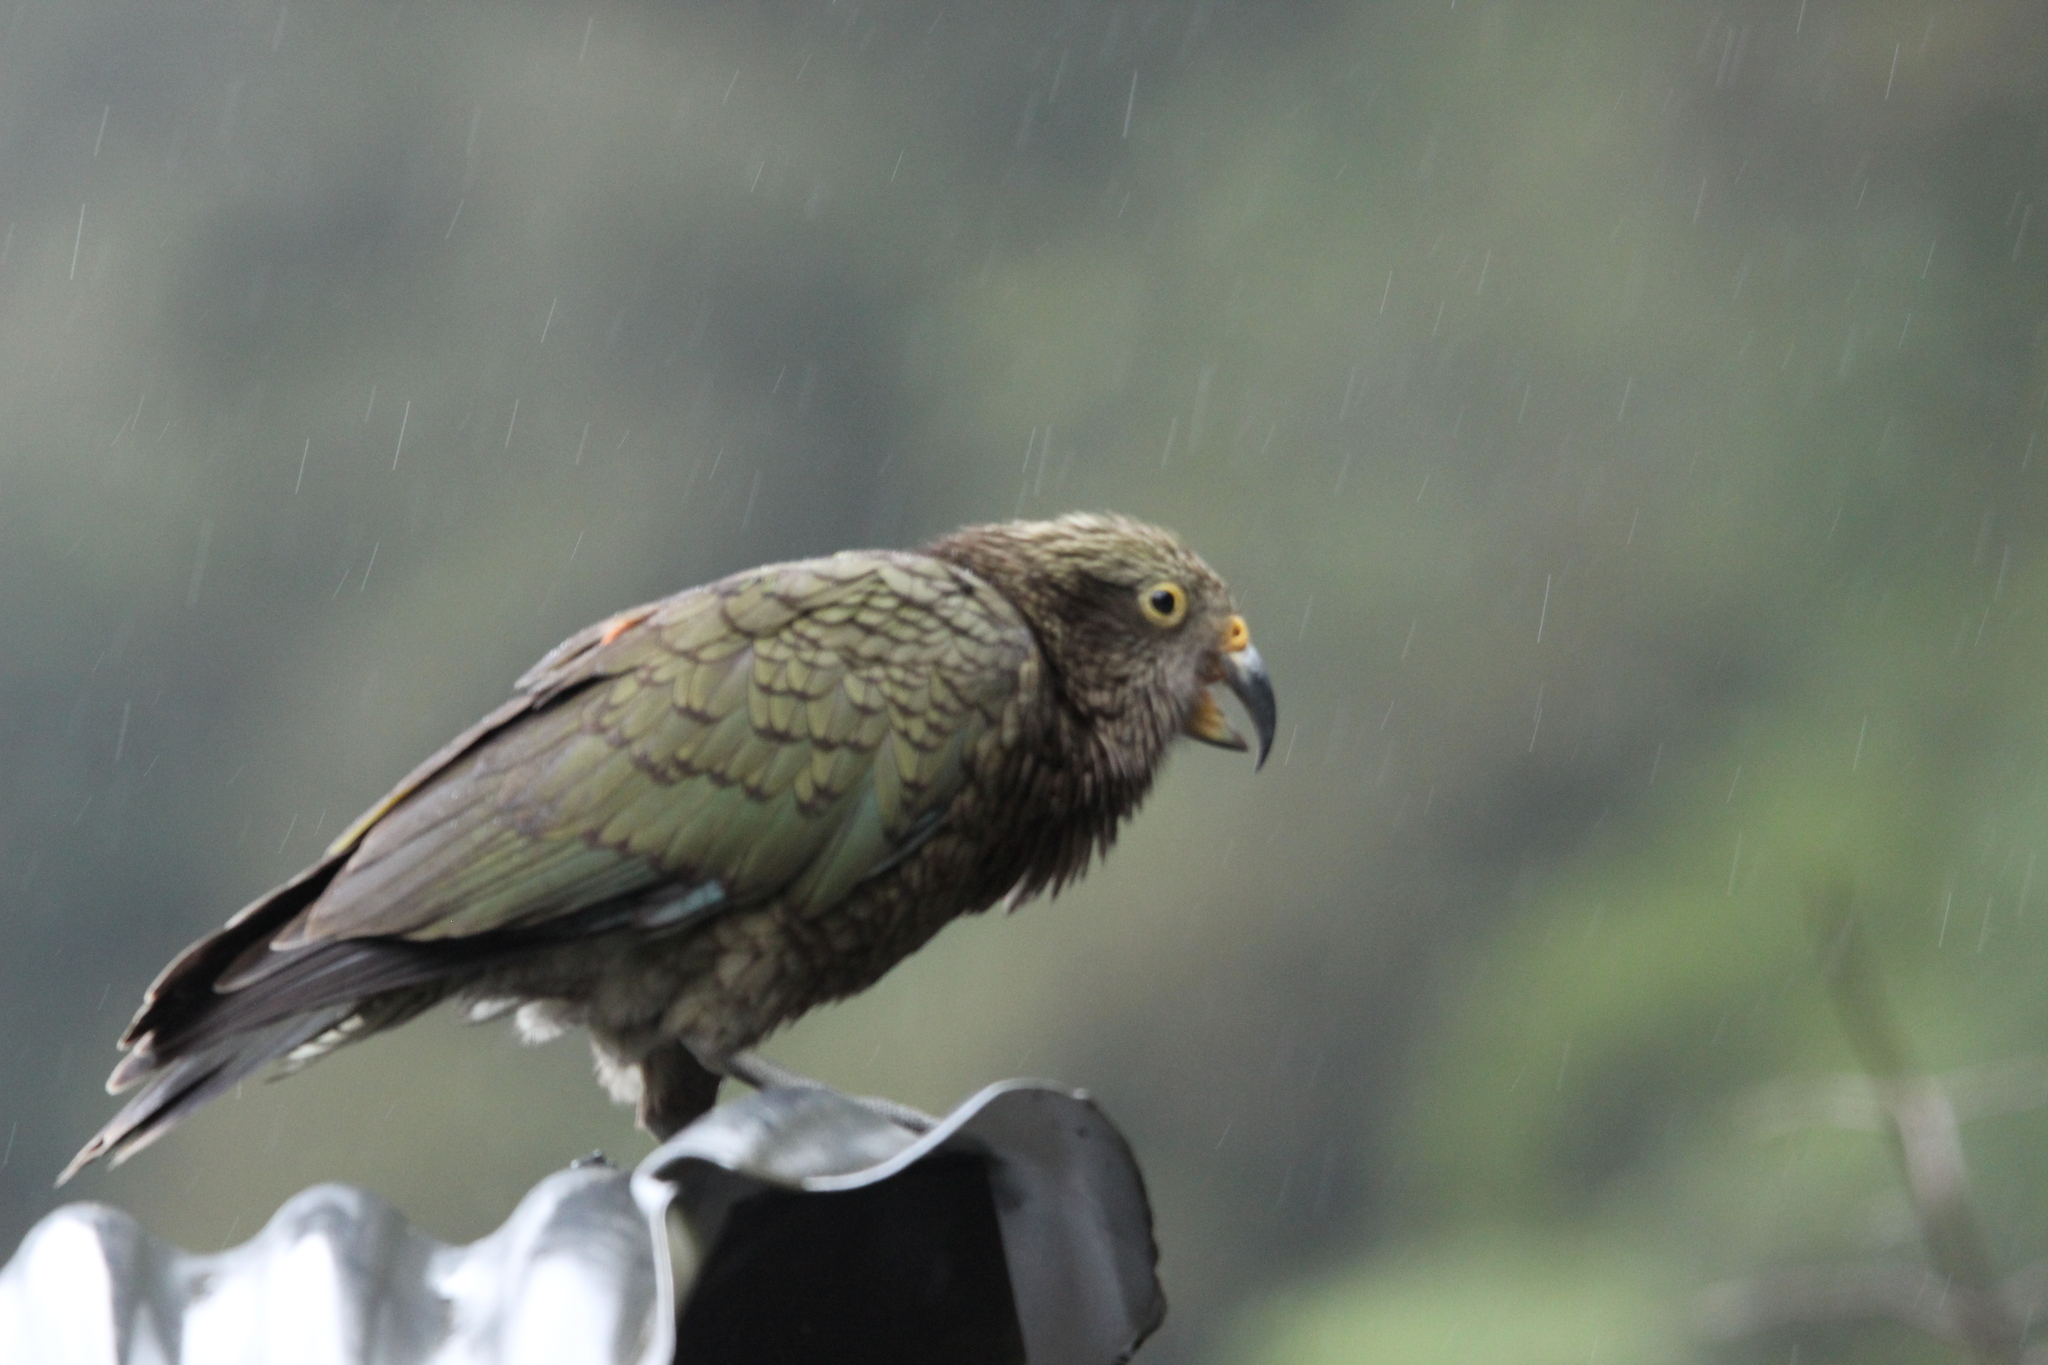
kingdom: Animalia
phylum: Chordata
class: Aves
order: Psittaciformes
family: Psittacidae
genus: Nestor
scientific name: Nestor notabilis
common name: Kea
